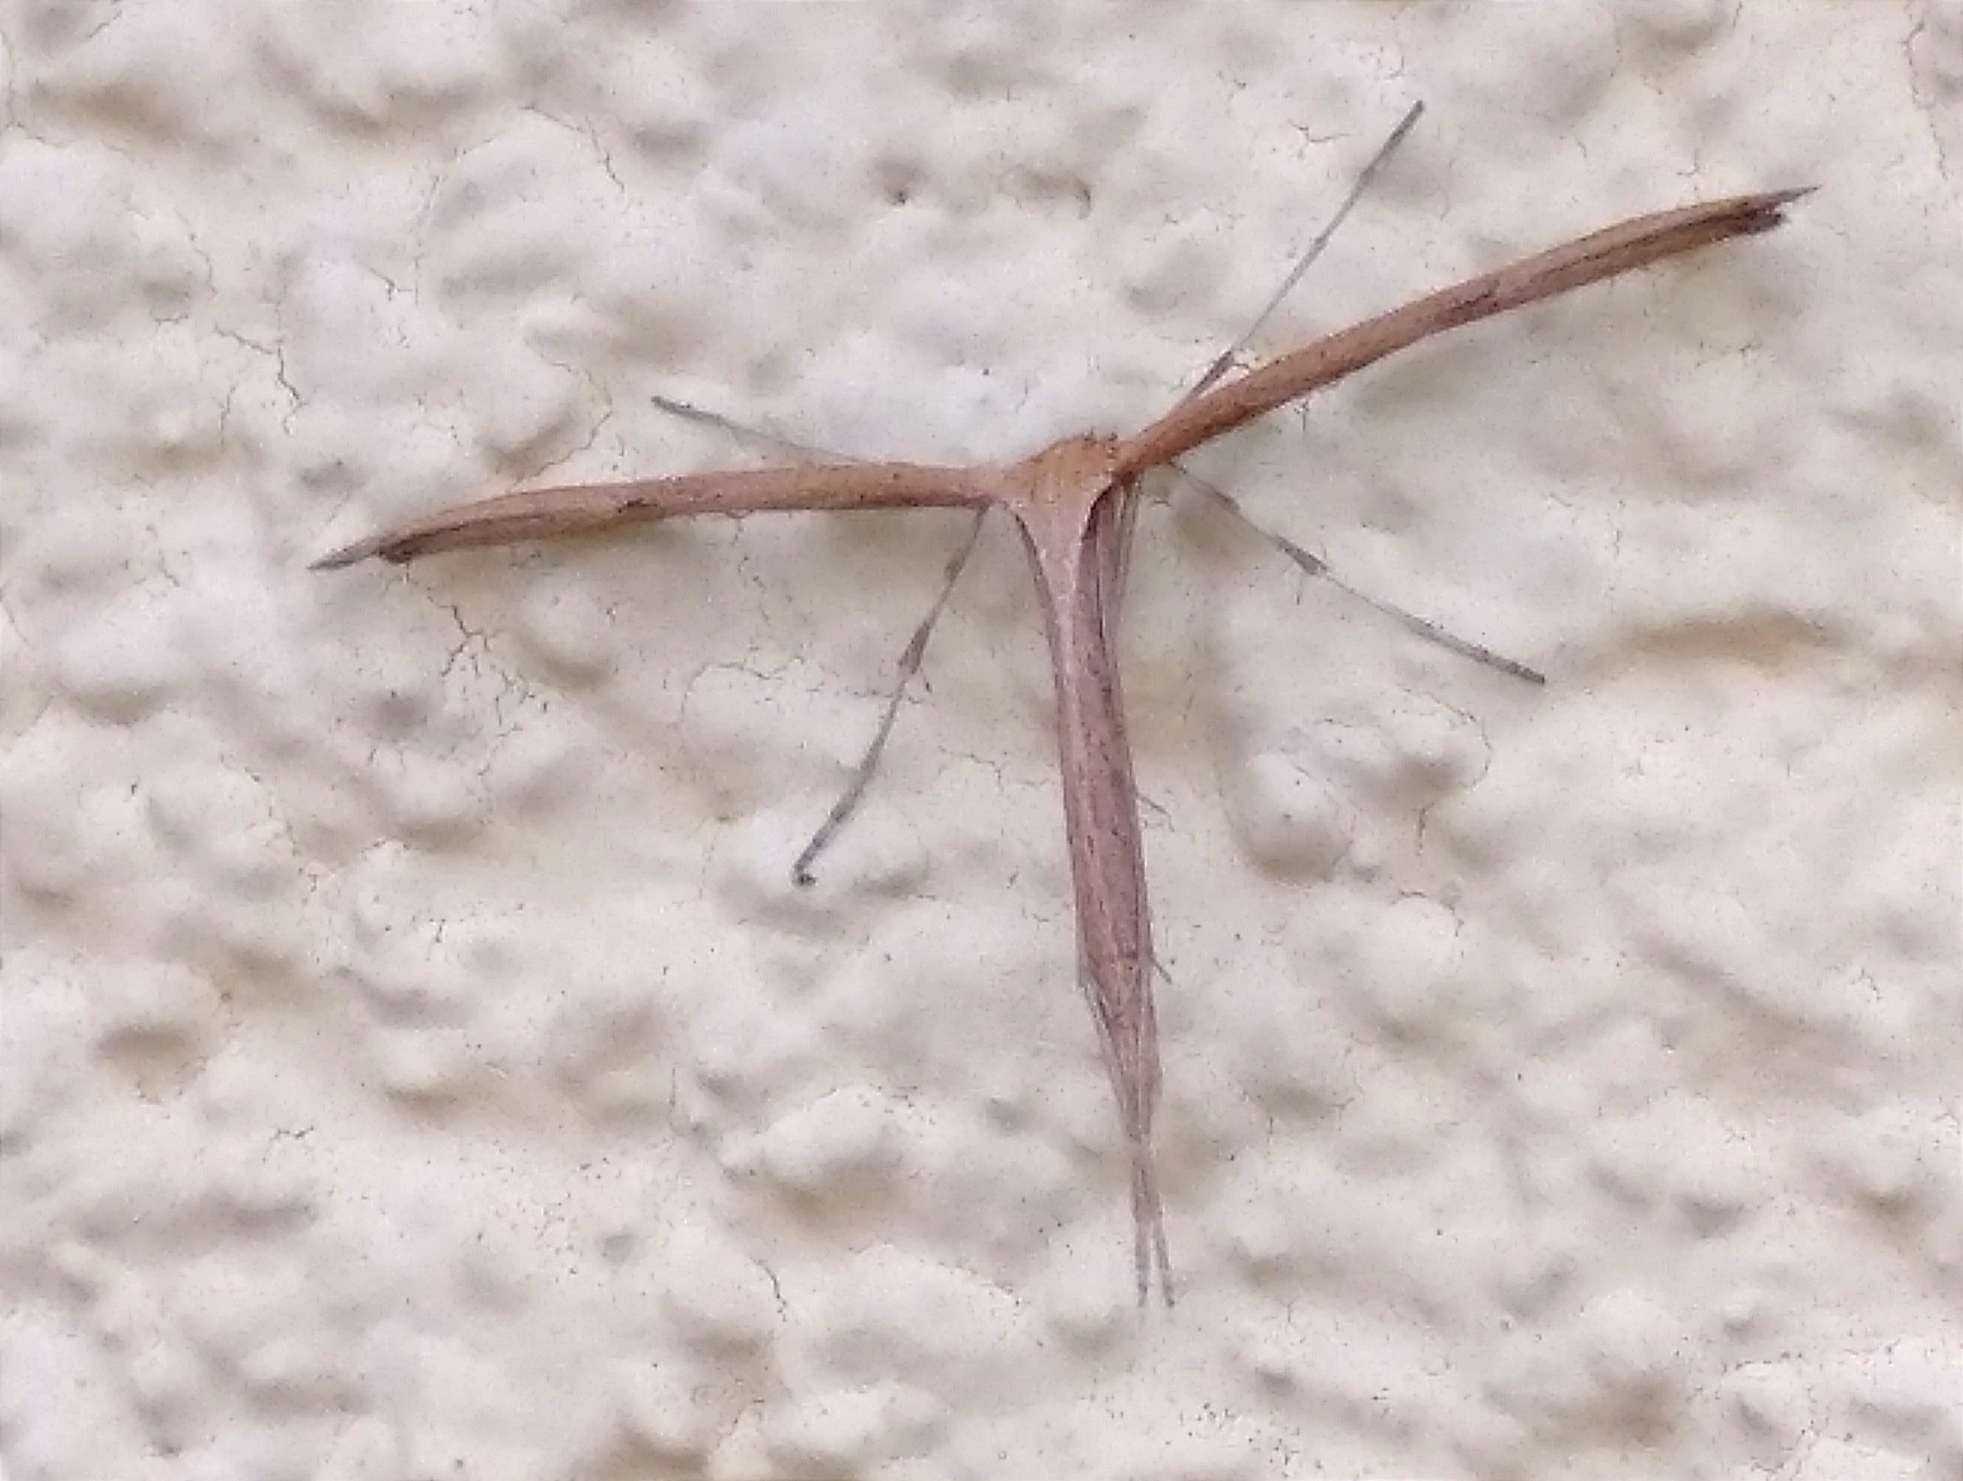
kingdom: Animalia
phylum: Arthropoda
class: Insecta
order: Lepidoptera
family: Pterophoridae
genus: Emmelina
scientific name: Emmelina monodactyla
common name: Common plume
